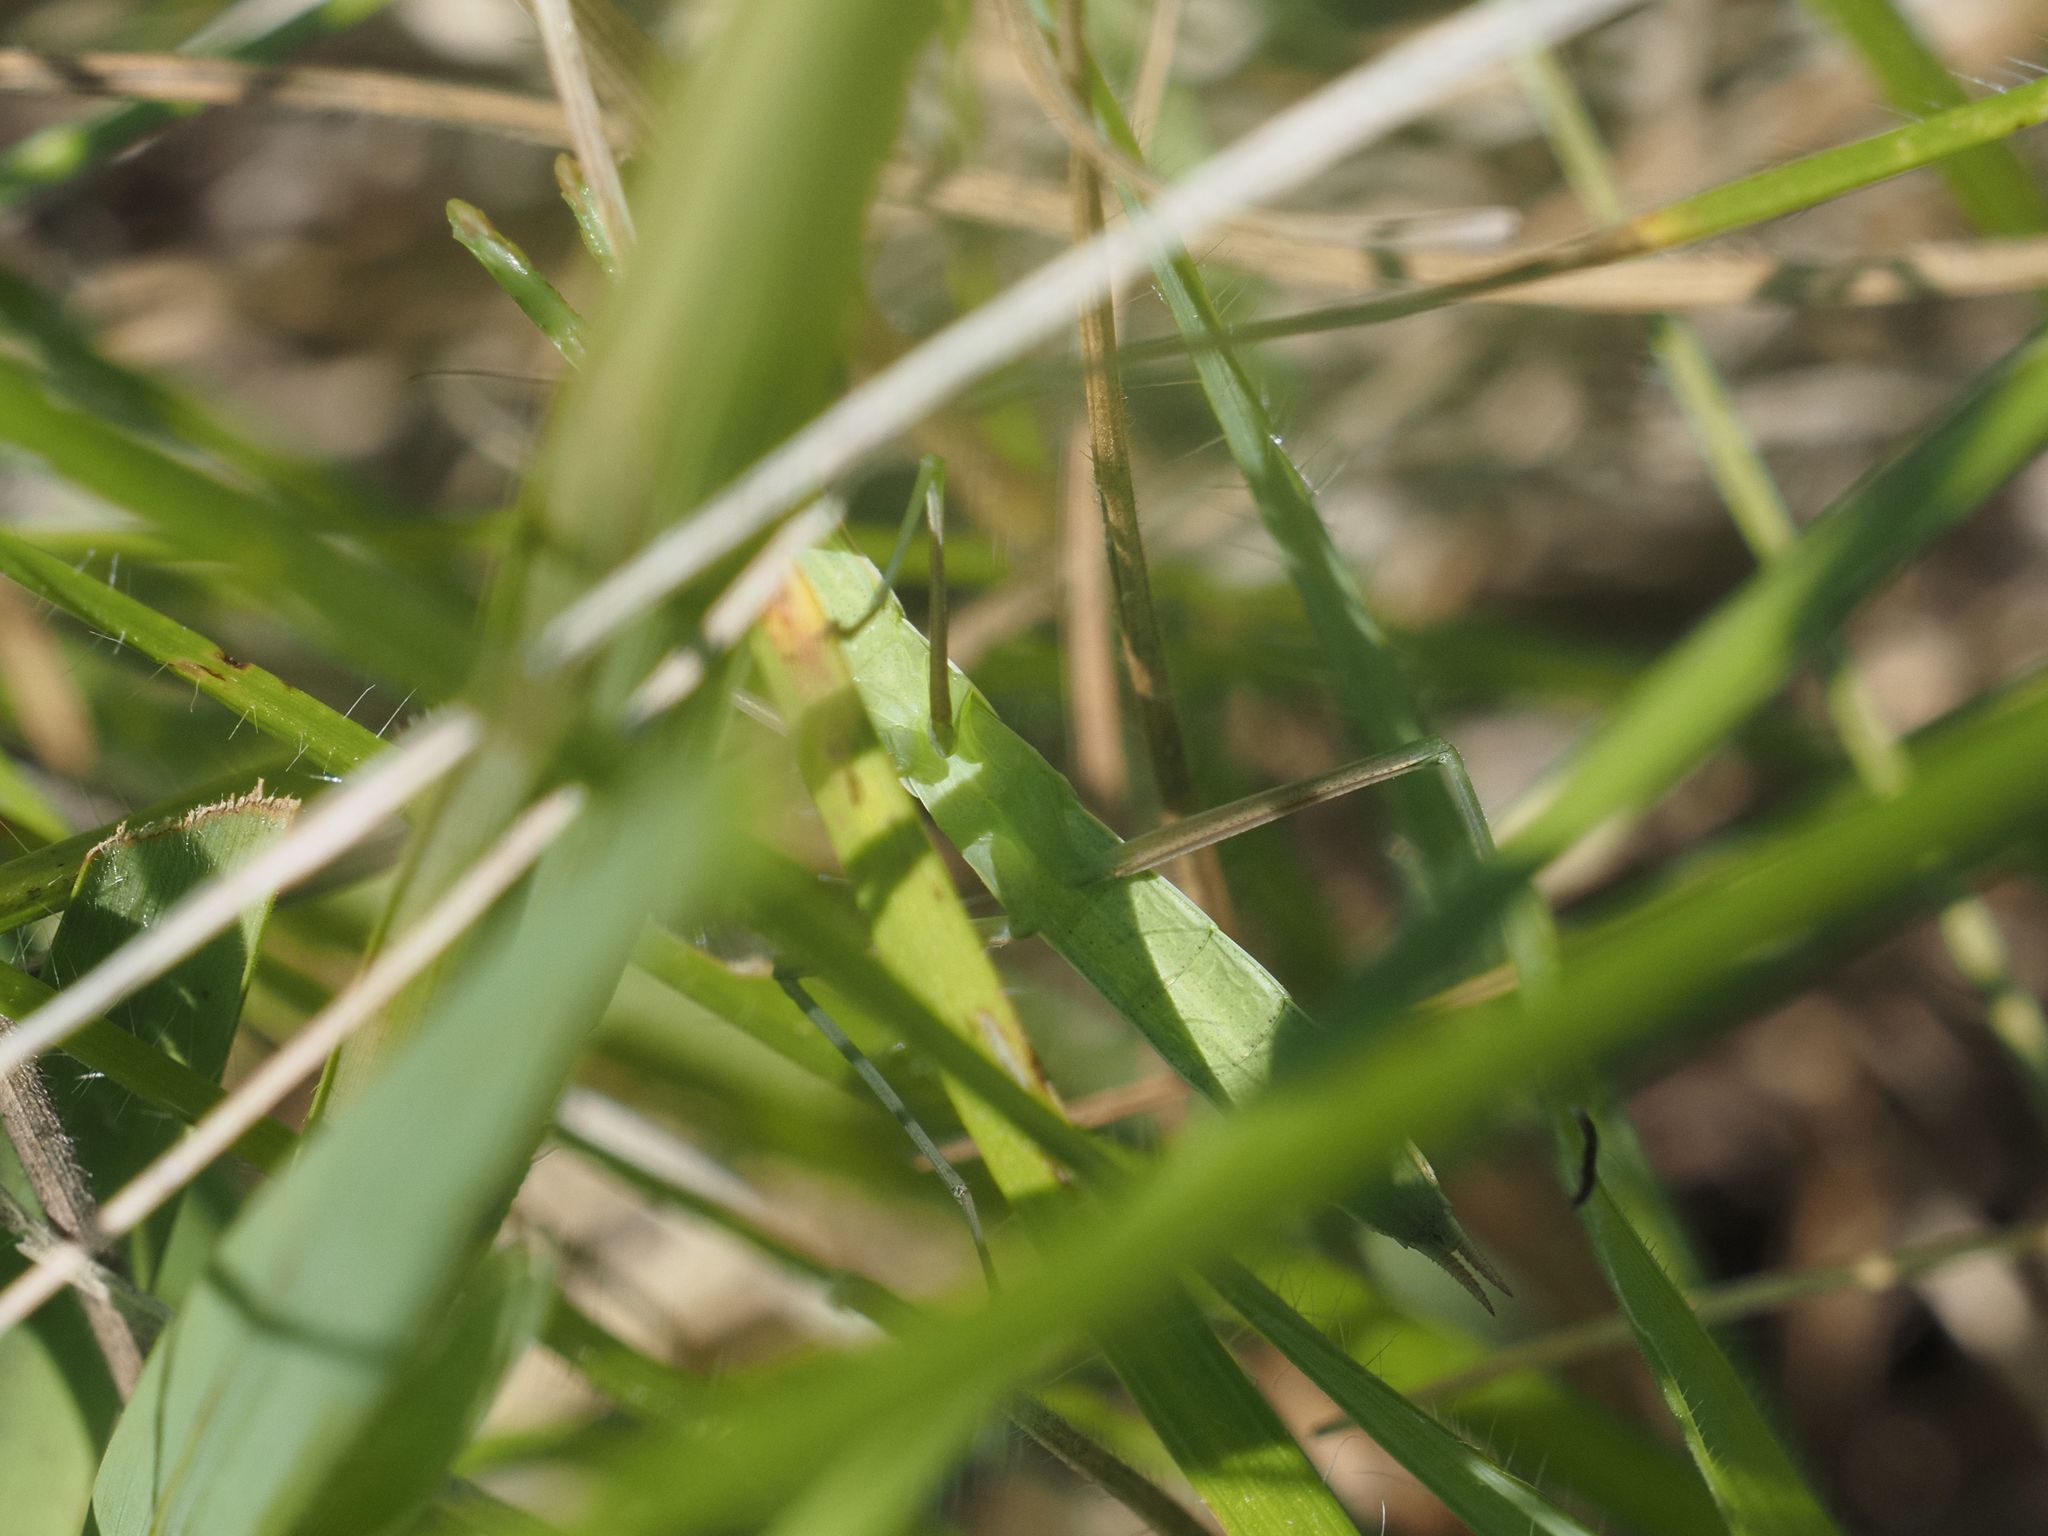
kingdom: Animalia
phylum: Arthropoda
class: Insecta
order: Mantodea
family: Mantidae
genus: Mantis
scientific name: Mantis religiosa
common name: Praying mantis
